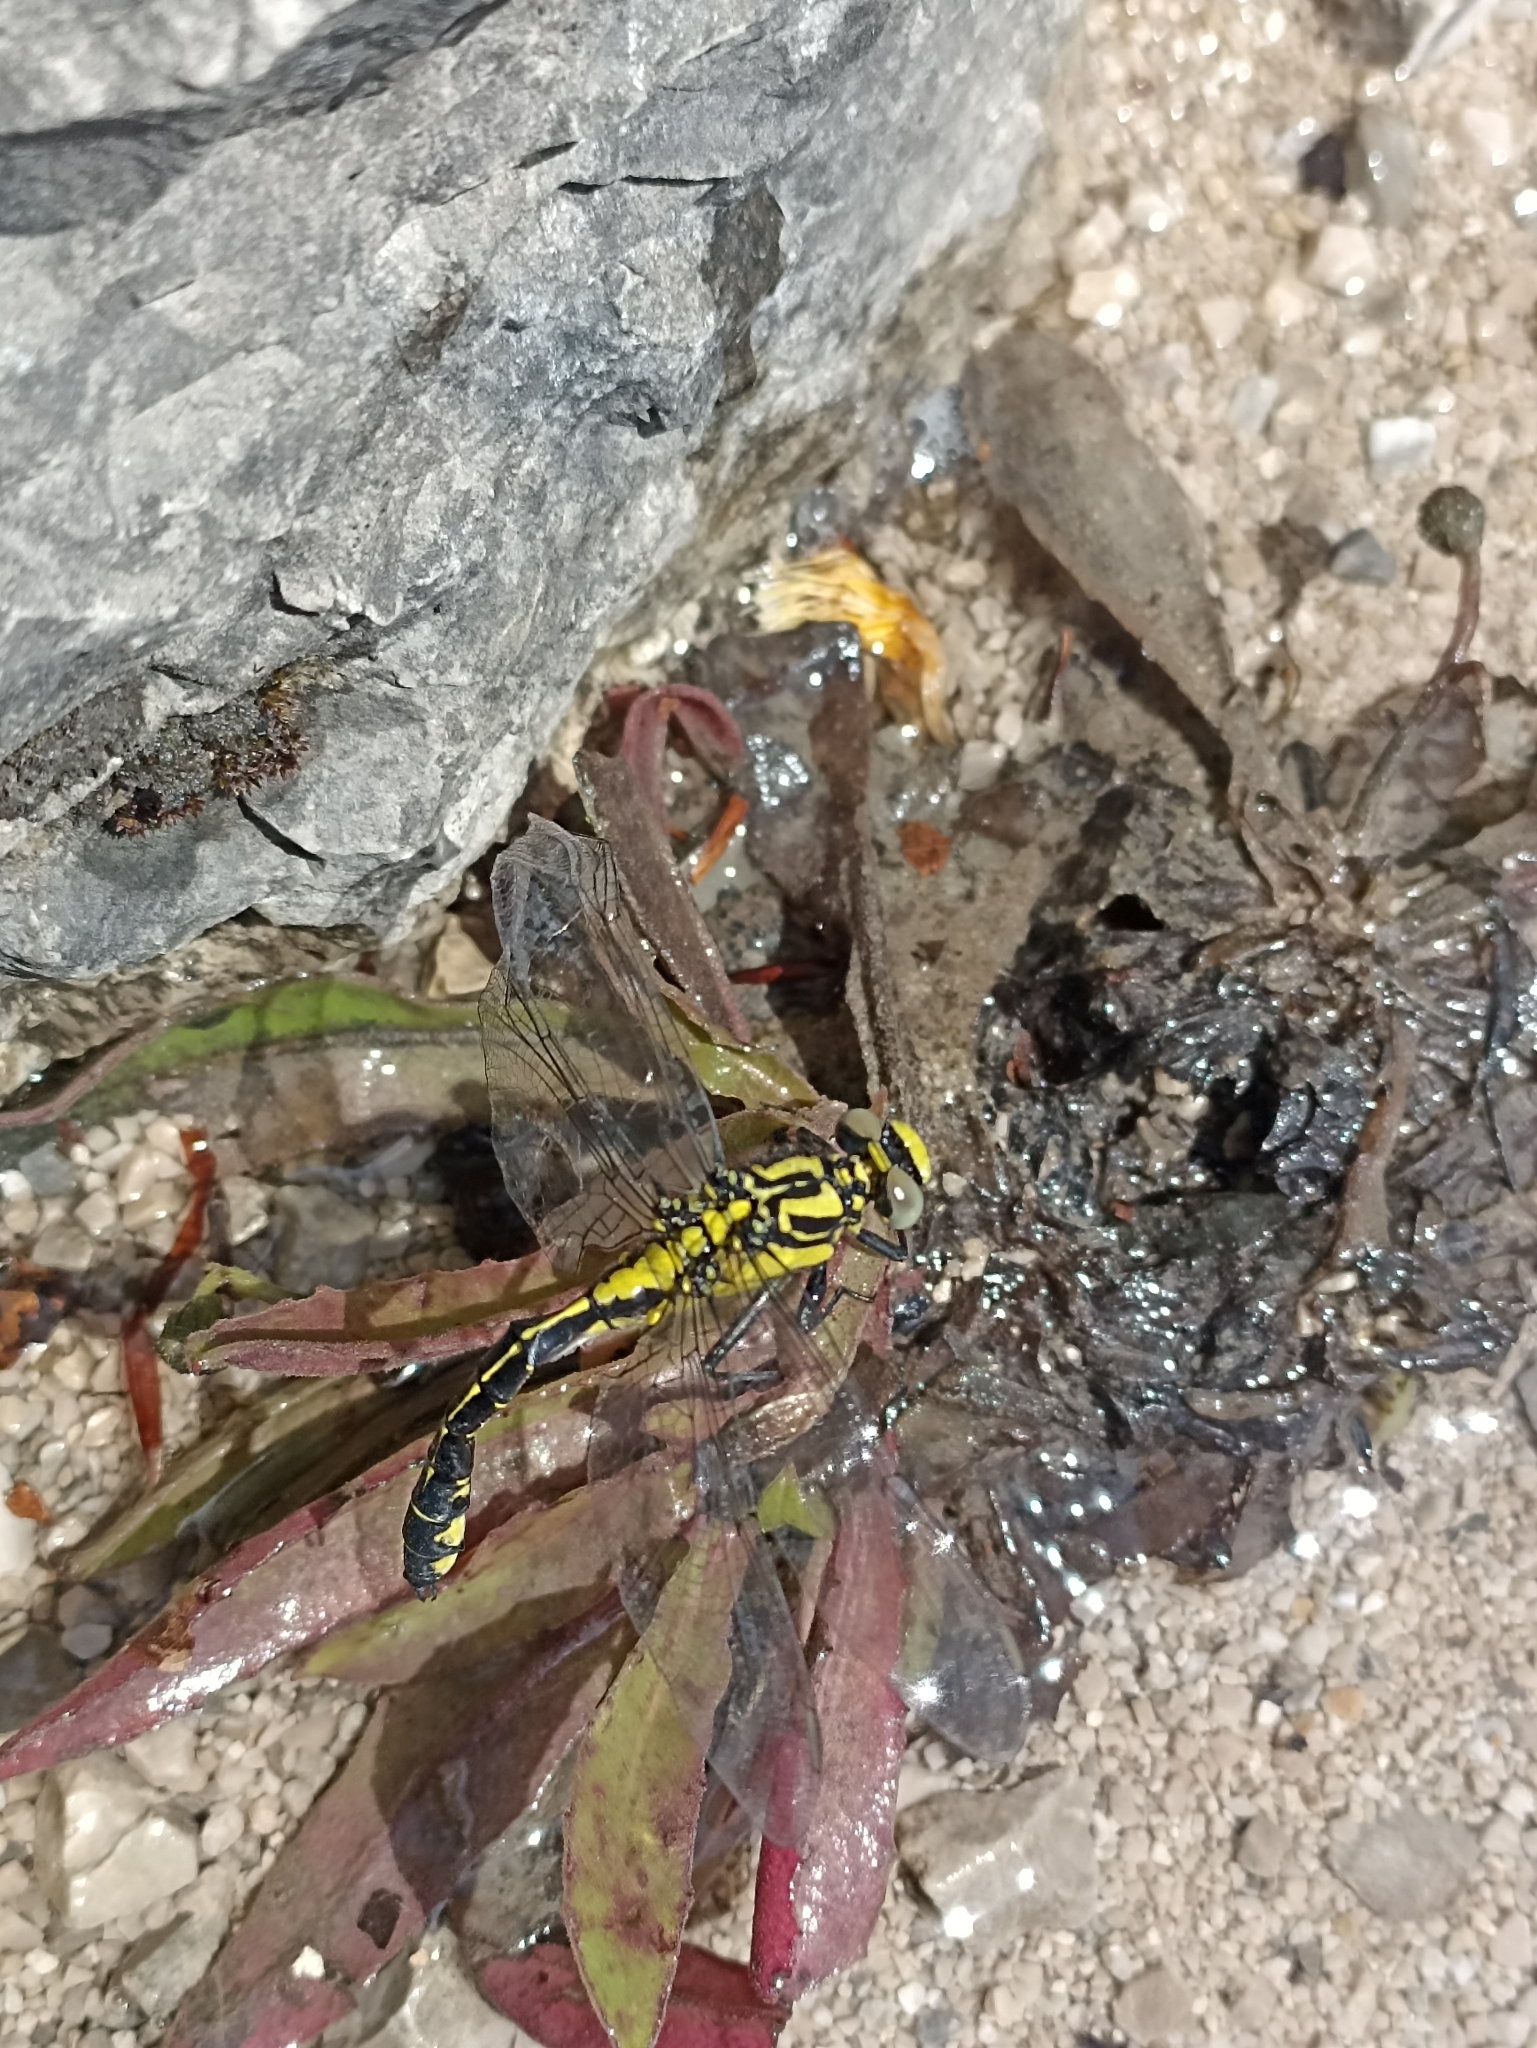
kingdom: Animalia
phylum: Arthropoda
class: Insecta
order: Odonata
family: Gomphidae
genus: Gomphus
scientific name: Gomphus vulgatissimus
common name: Club-tailed dragonfly
